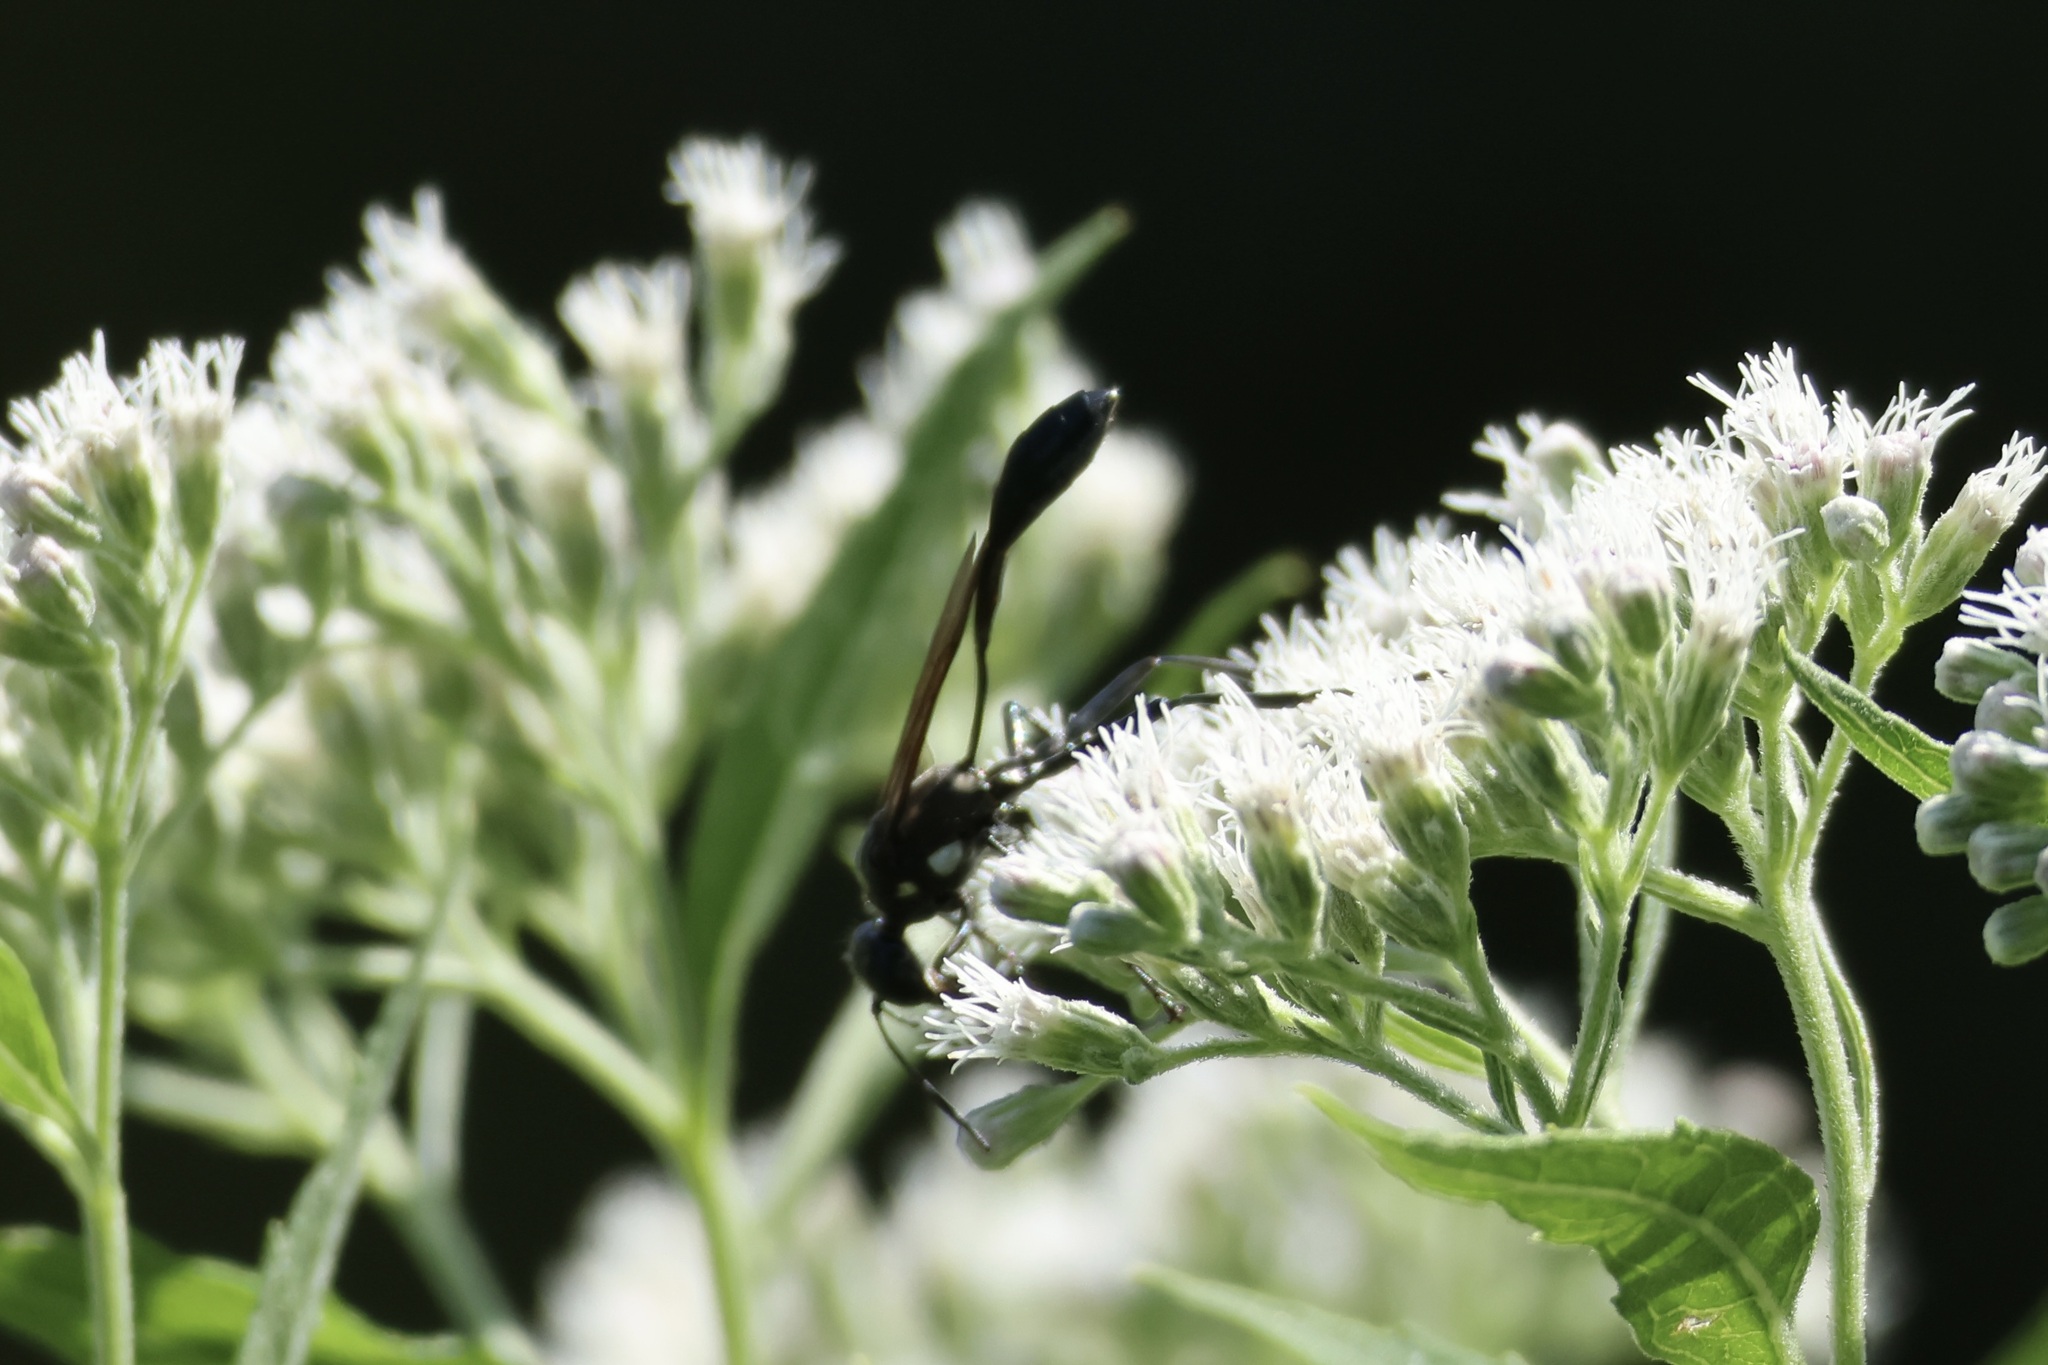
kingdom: Animalia
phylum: Arthropoda
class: Insecta
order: Hymenoptera
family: Sphecidae
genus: Eremnophila
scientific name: Eremnophila aureonotata
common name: Gold-marked thread-waisted wasp
